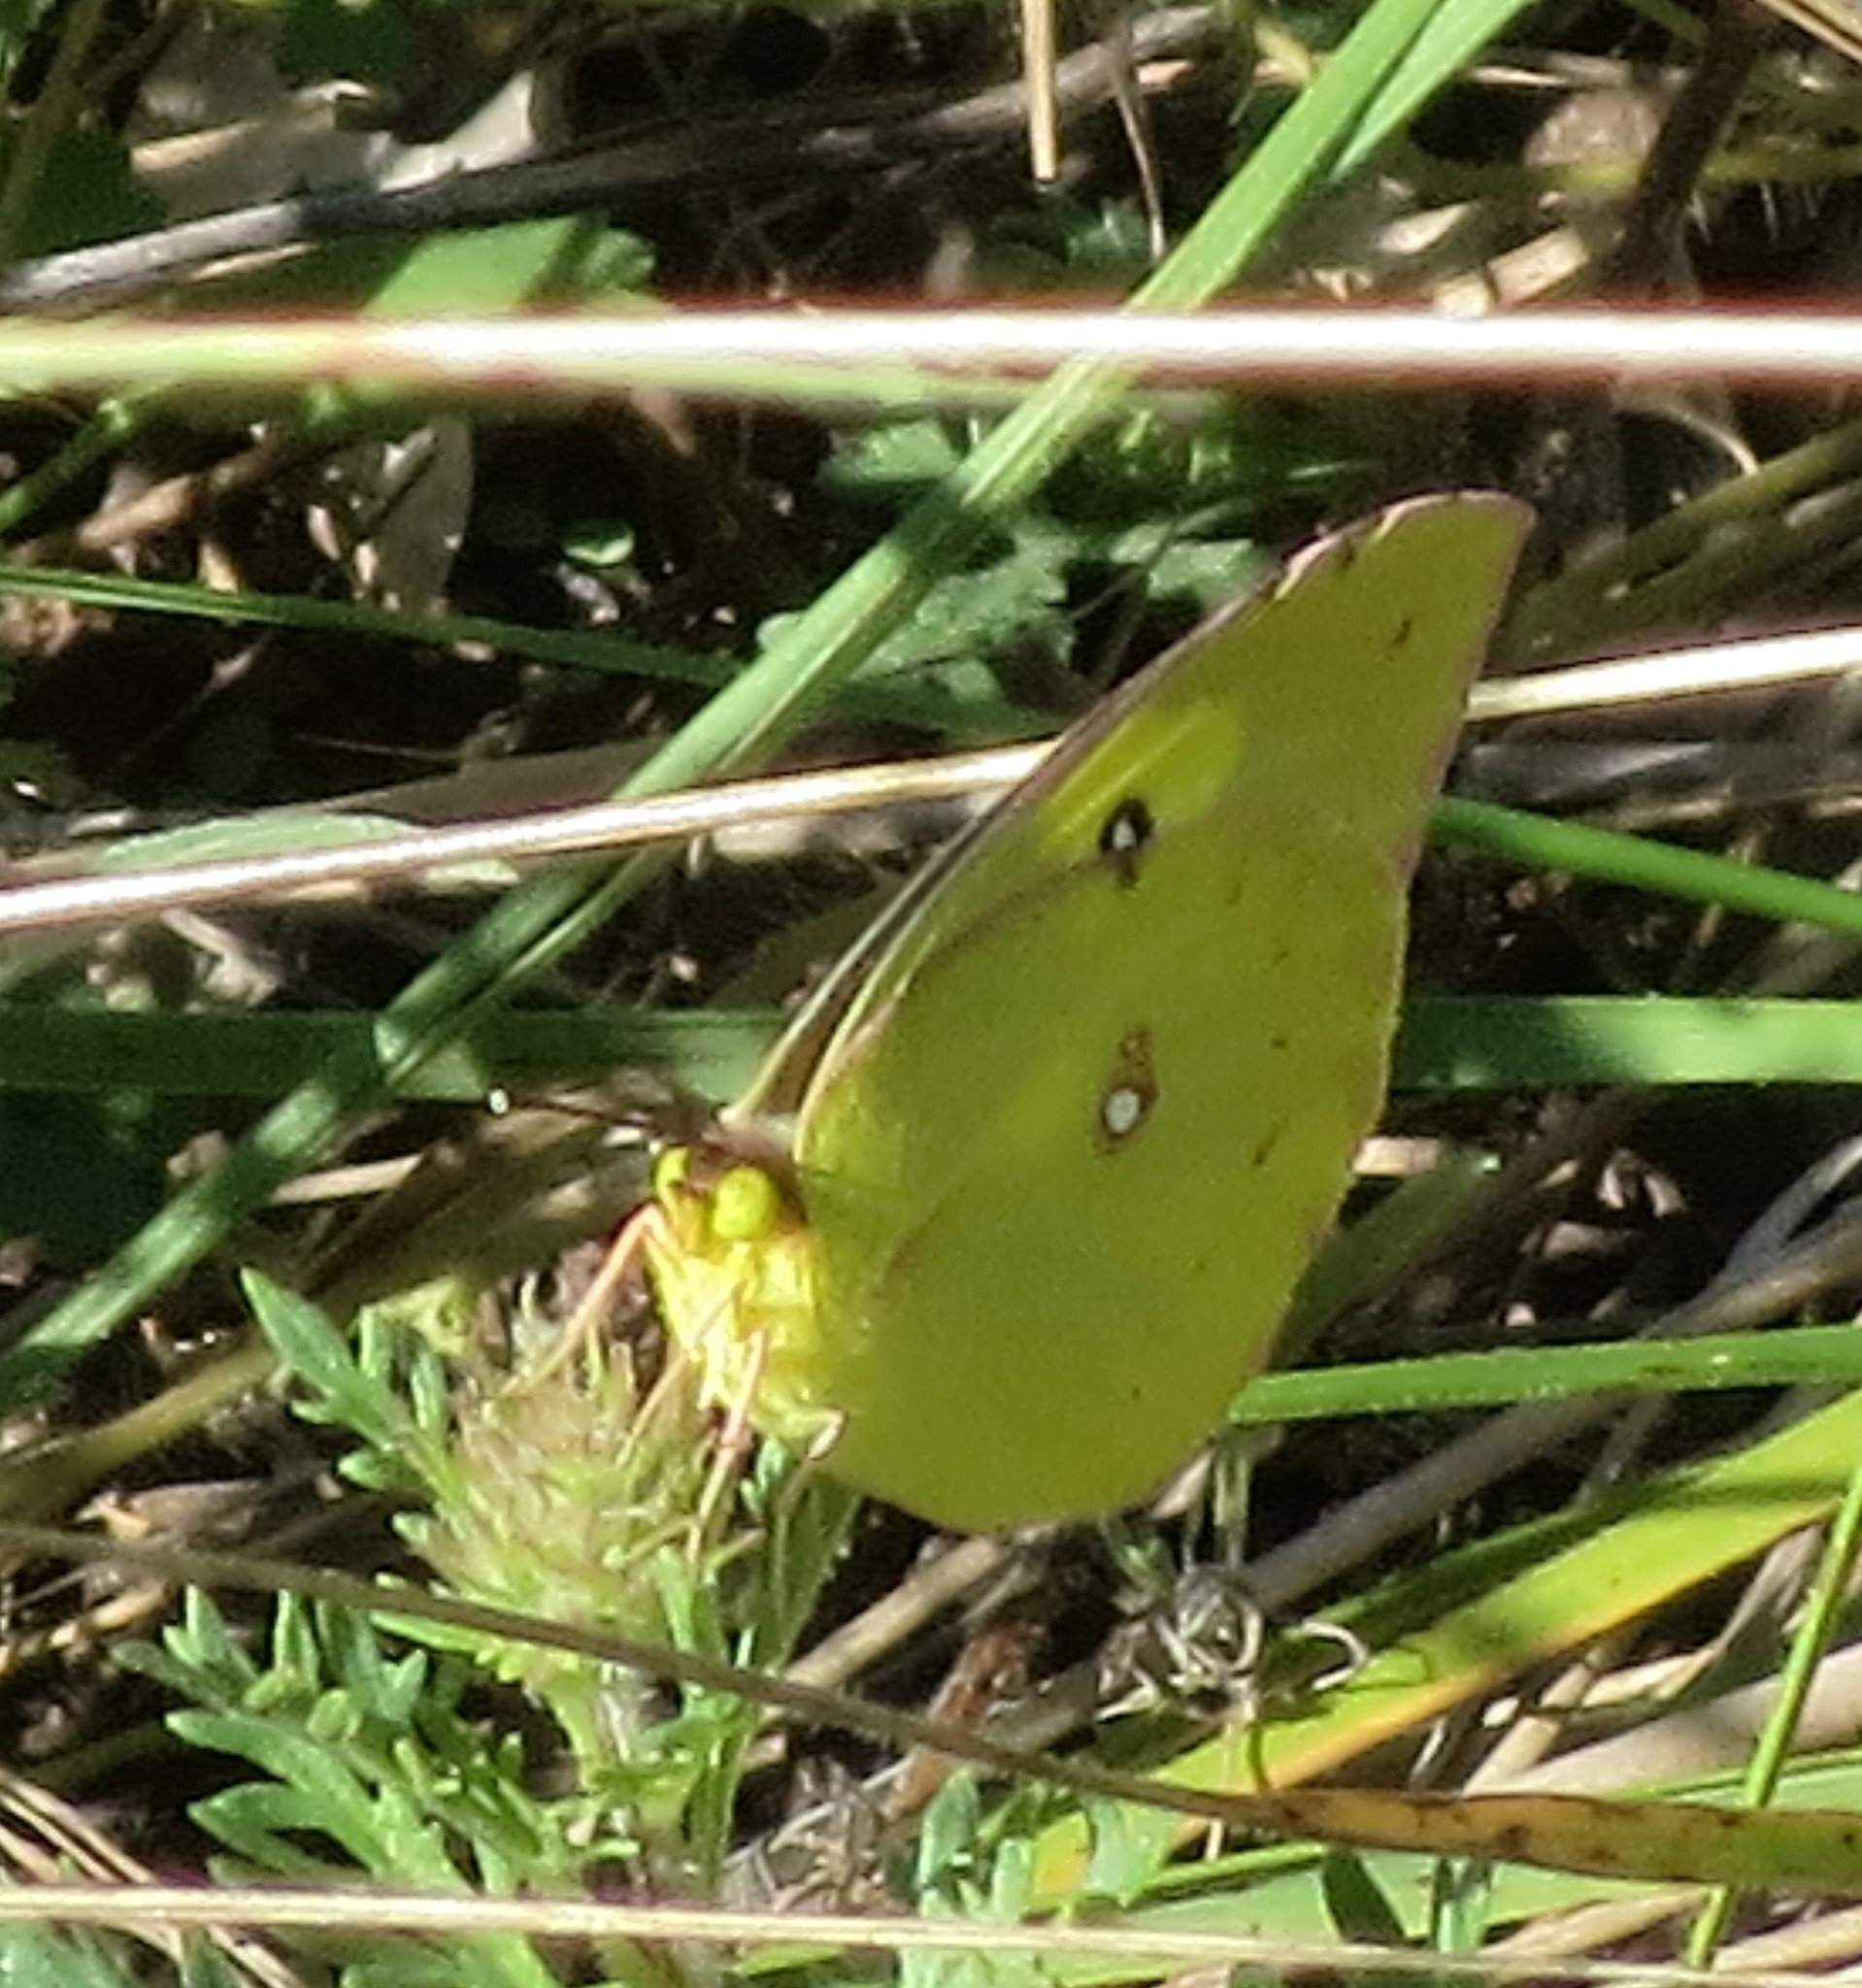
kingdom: Animalia
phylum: Arthropoda
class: Insecta
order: Lepidoptera
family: Pieridae
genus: Zerene
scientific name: Zerene cesonia
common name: Southern dogface
